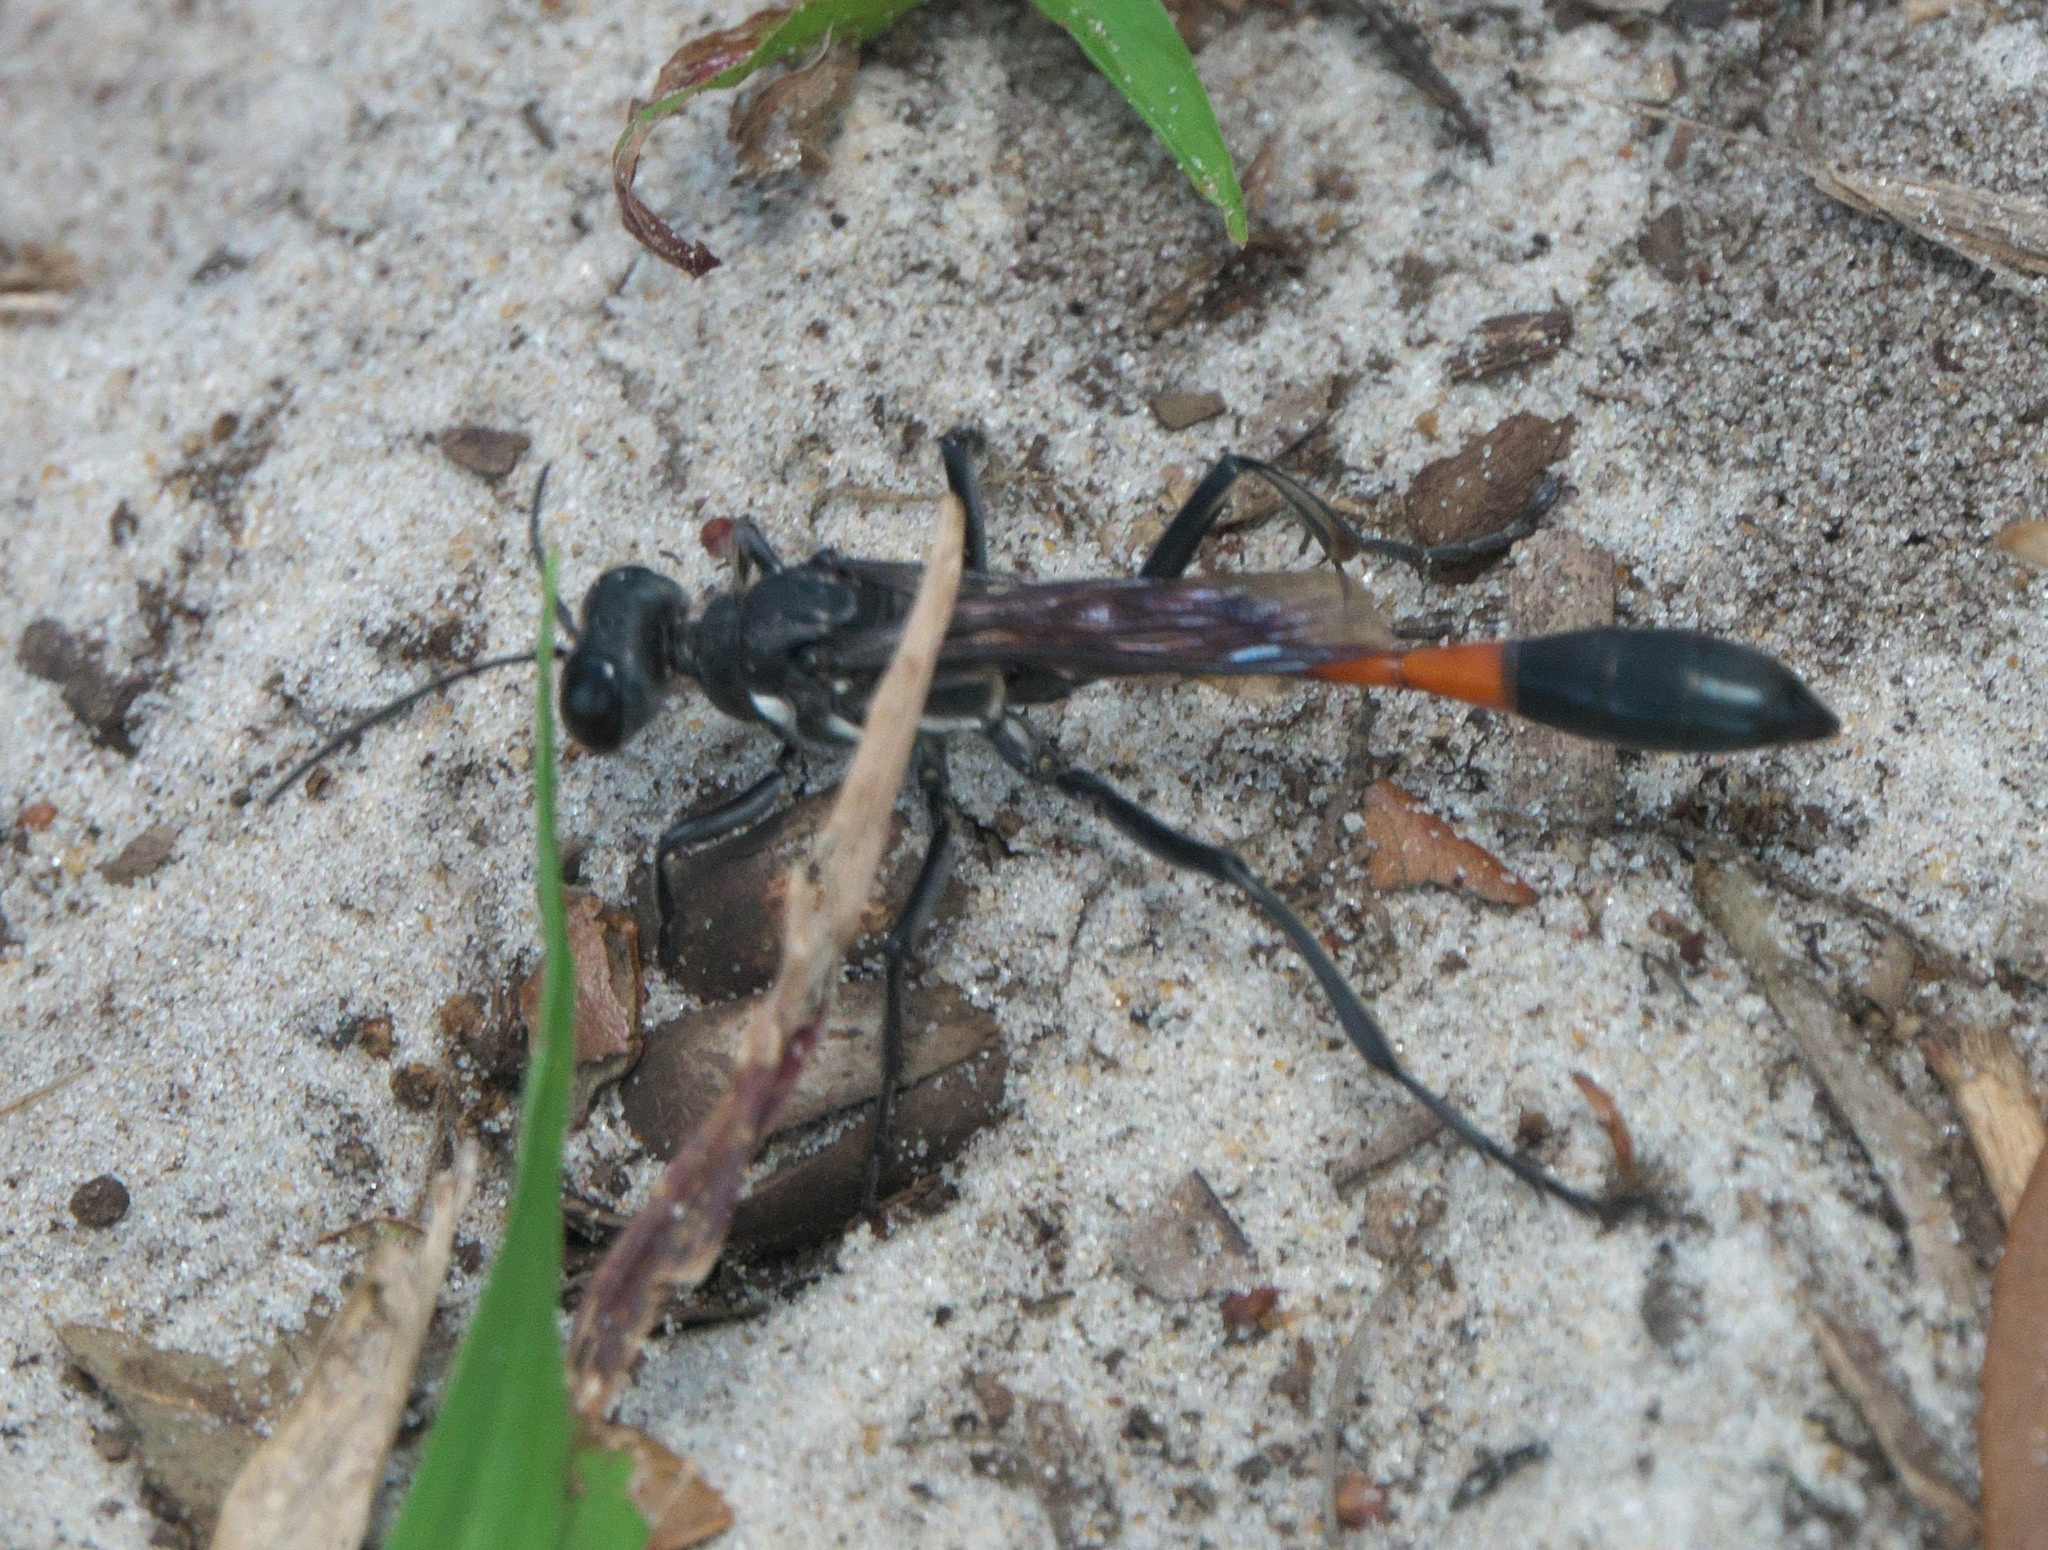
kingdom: Animalia
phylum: Arthropoda
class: Insecta
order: Hymenoptera
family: Sphecidae
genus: Ammophila
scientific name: Ammophila procera
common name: Common thread-waisted wasp
